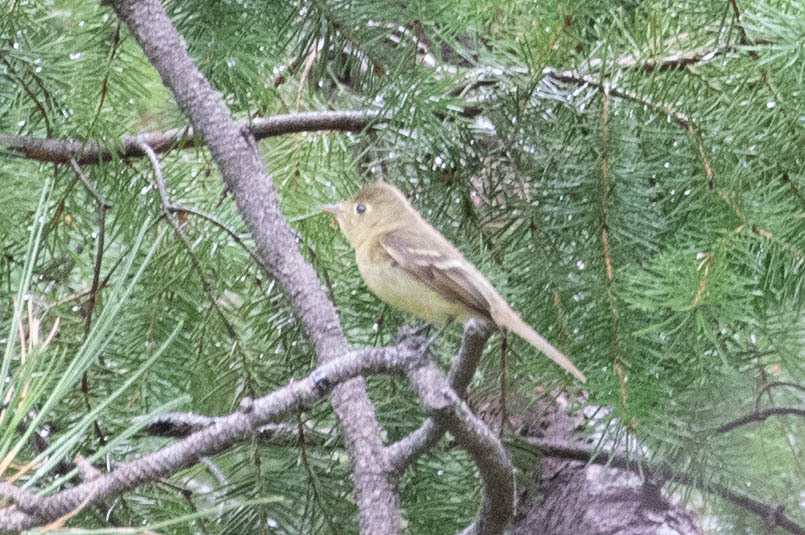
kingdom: Animalia
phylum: Chordata
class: Aves
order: Passeriformes
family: Tyrannidae
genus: Empidonax
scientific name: Empidonax difficilis
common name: Pacific-slope flycatcher
